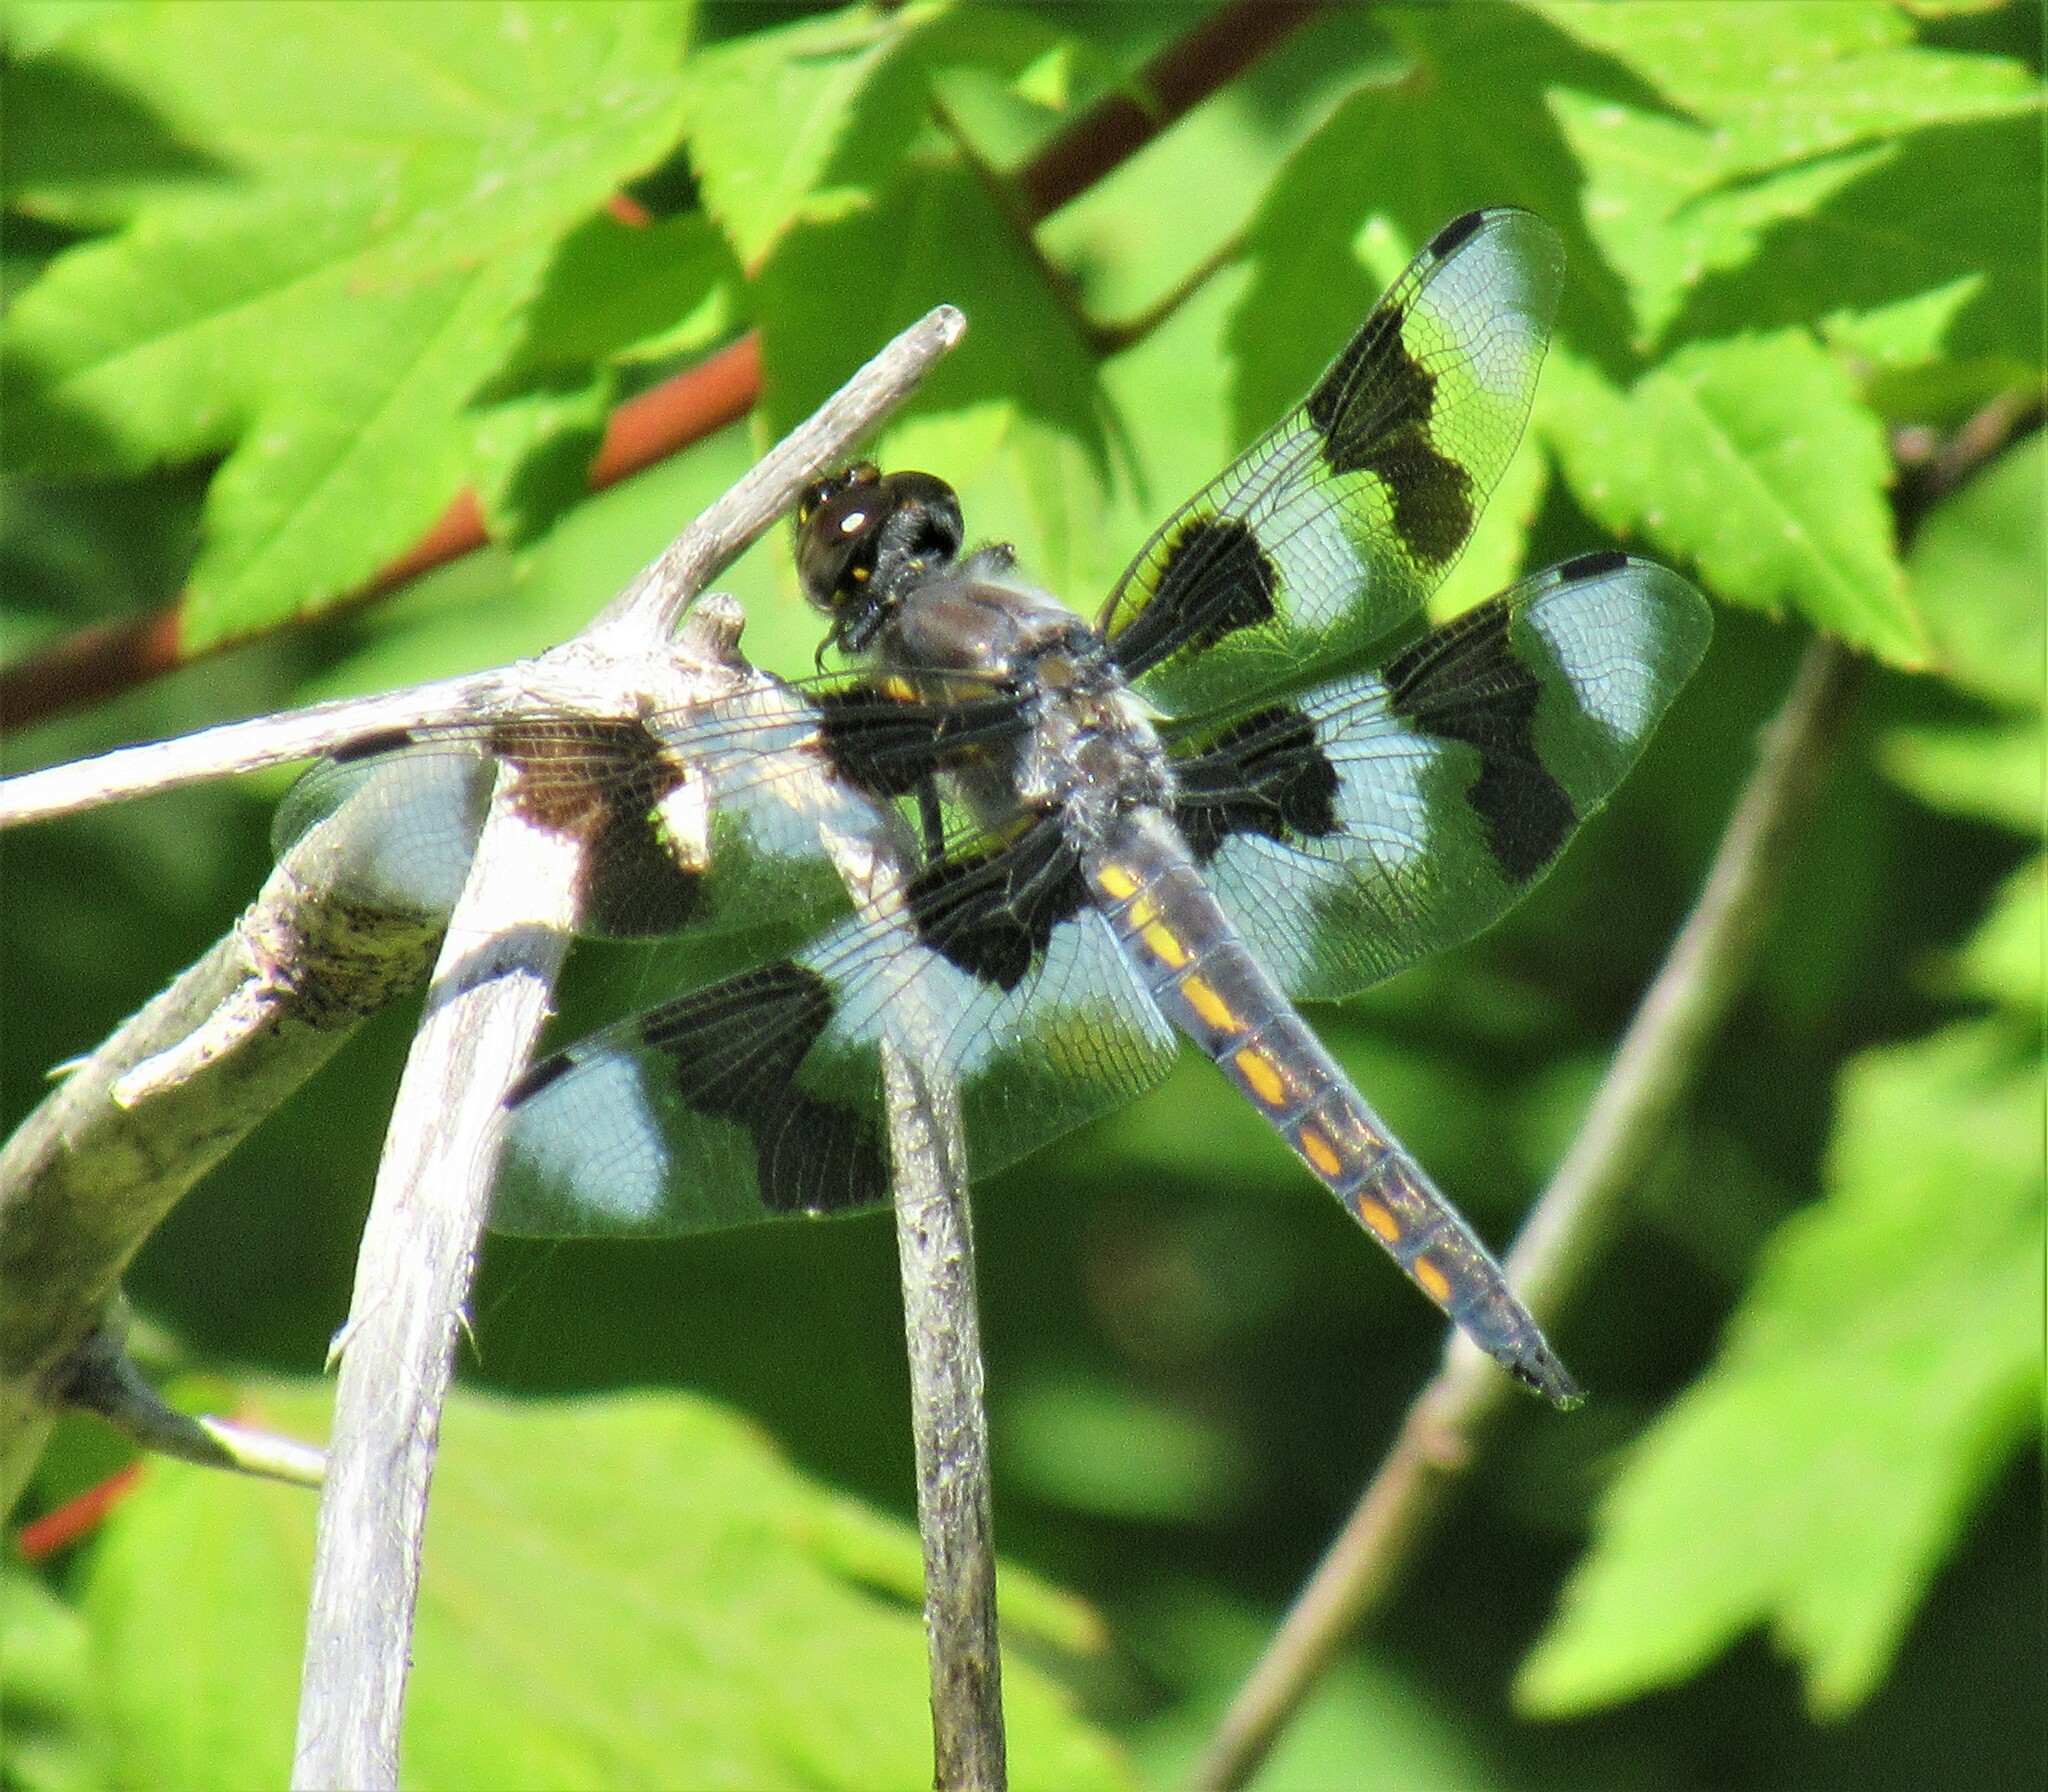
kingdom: Animalia
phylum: Arthropoda
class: Insecta
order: Odonata
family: Libellulidae
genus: Libellula
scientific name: Libellula forensis
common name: Eight-spotted skimmer
